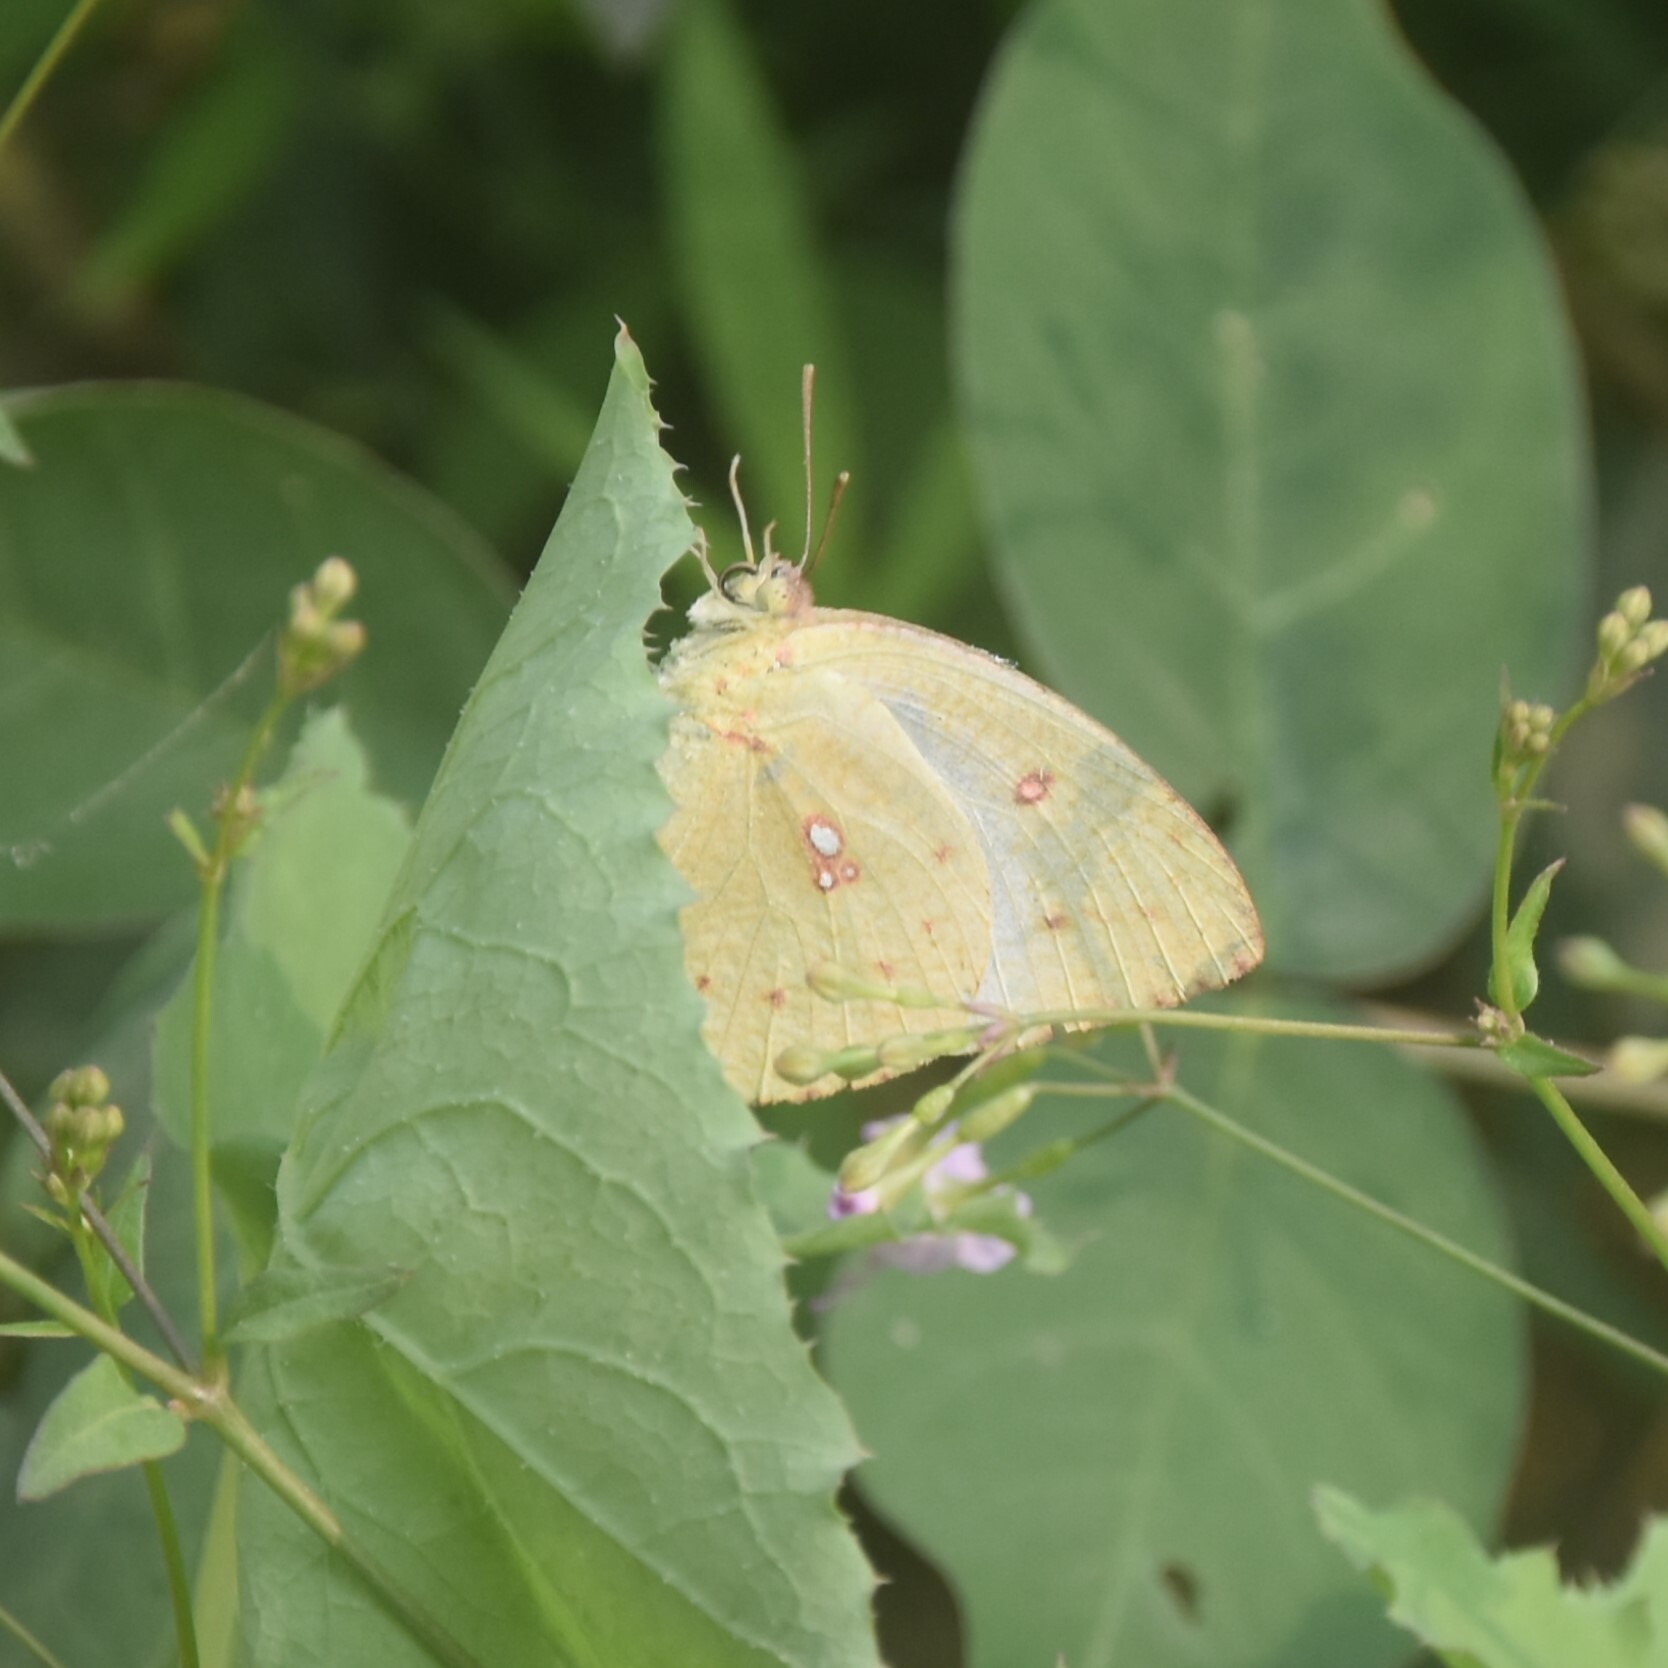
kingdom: Animalia
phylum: Arthropoda
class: Insecta
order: Lepidoptera
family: Pieridae
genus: Catopsilia
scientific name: Catopsilia pyranthe
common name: Mottled emigrant
